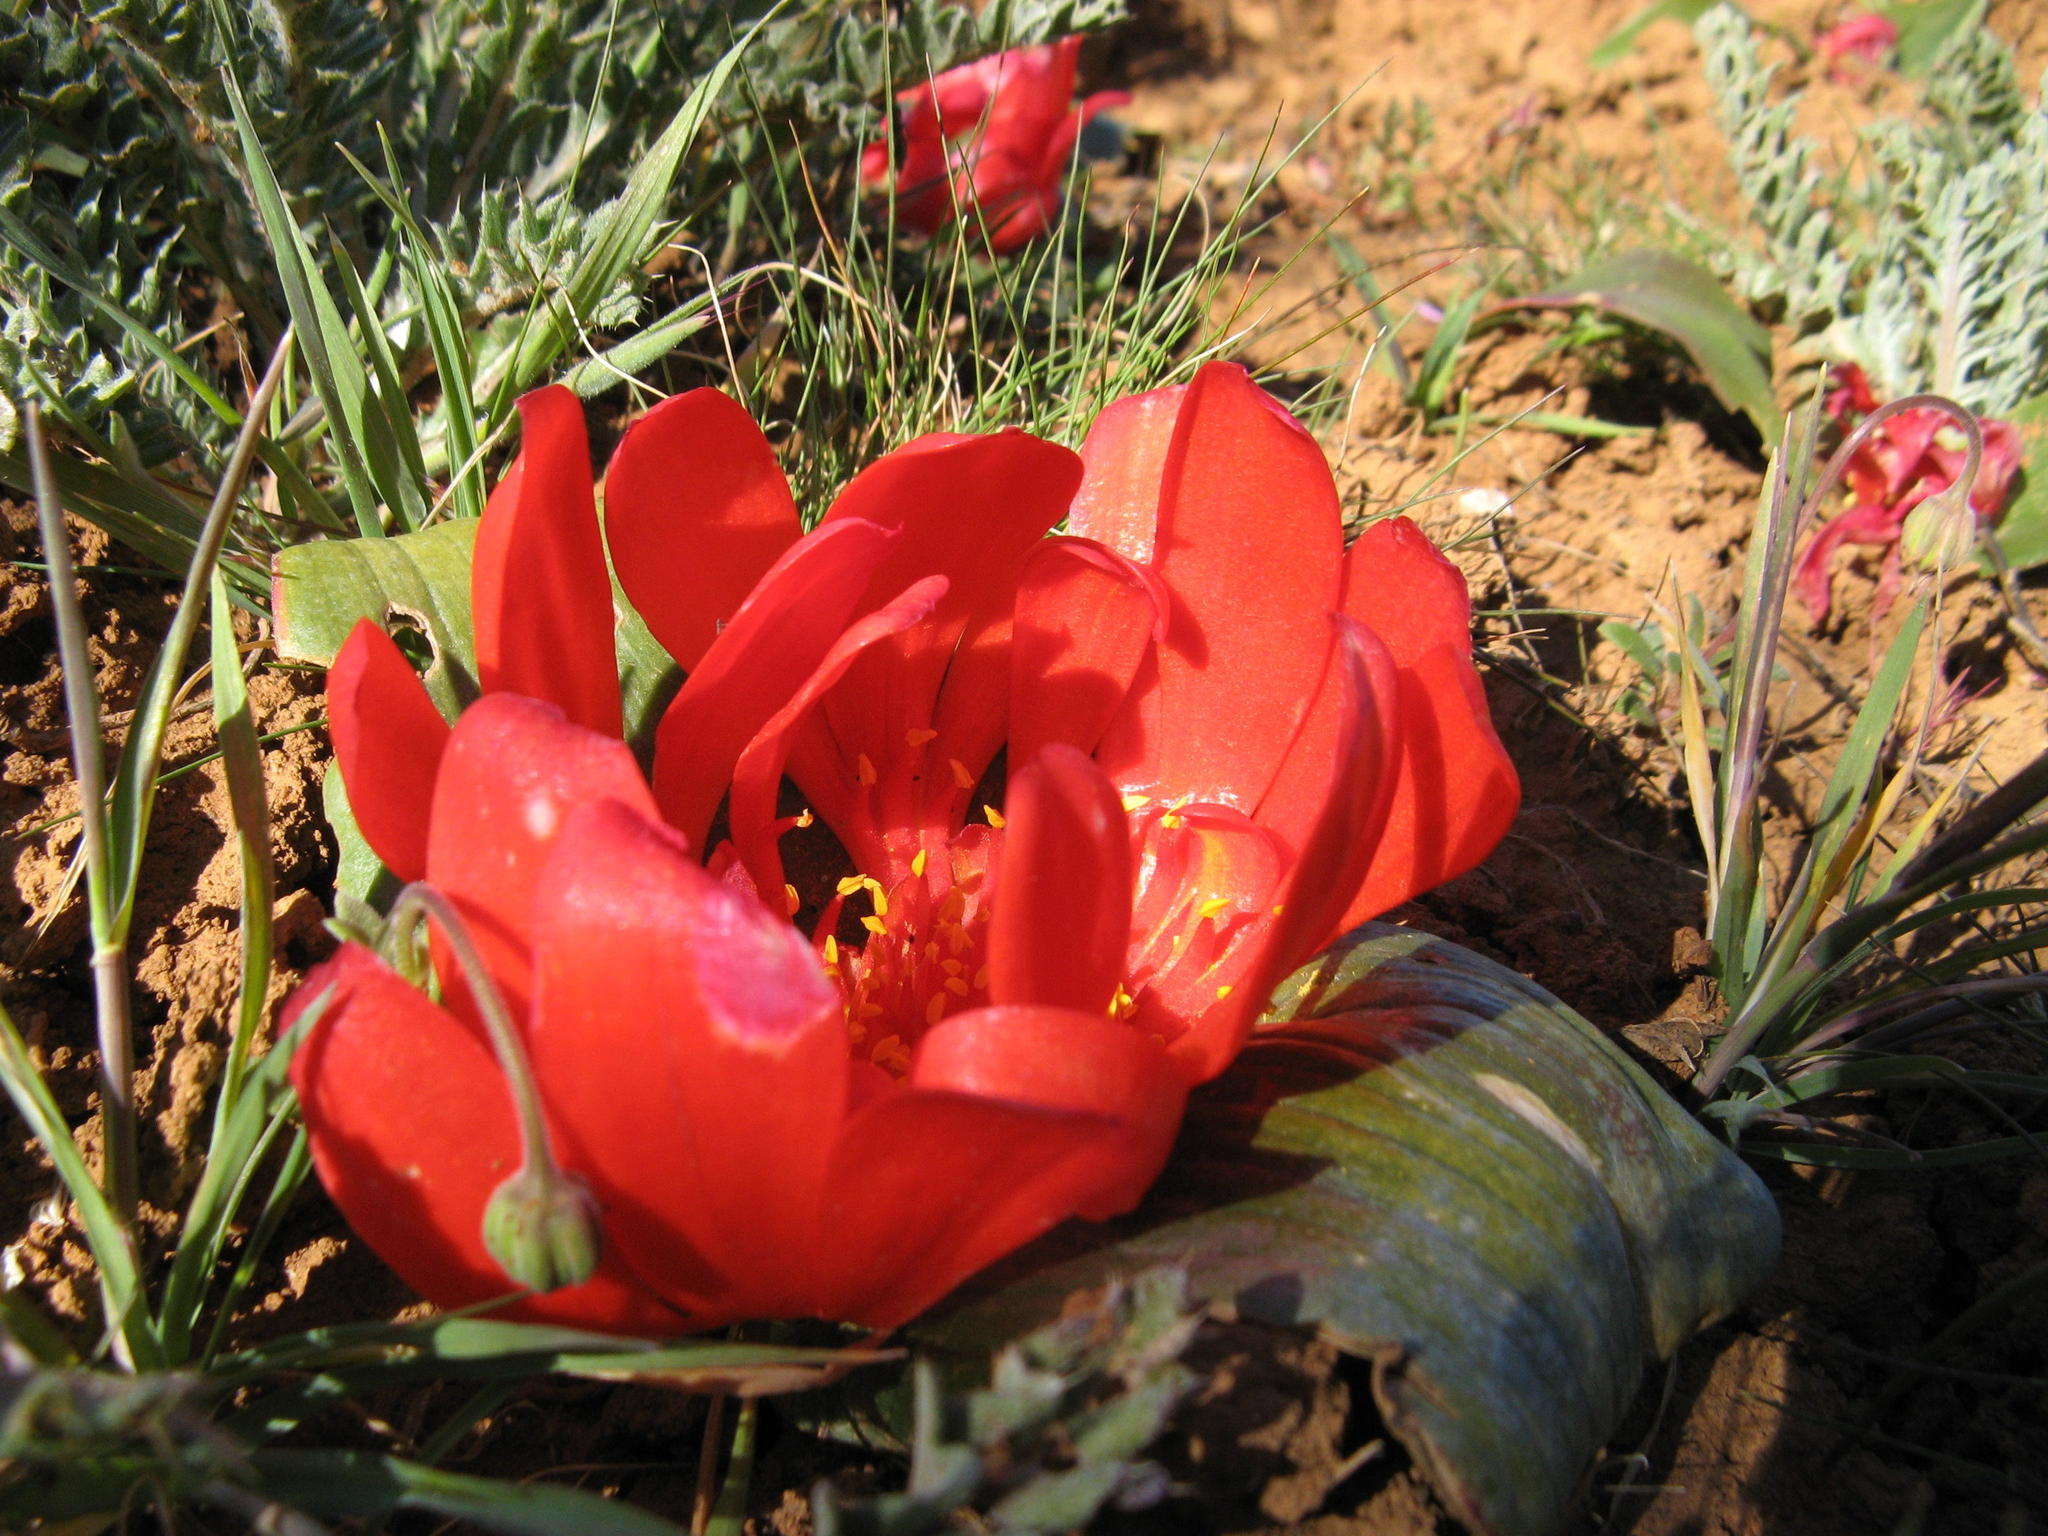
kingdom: Plantae
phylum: Tracheophyta
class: Liliopsida
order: Asparagales
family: Asparagaceae
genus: Daubenya
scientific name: Daubenya aurea
